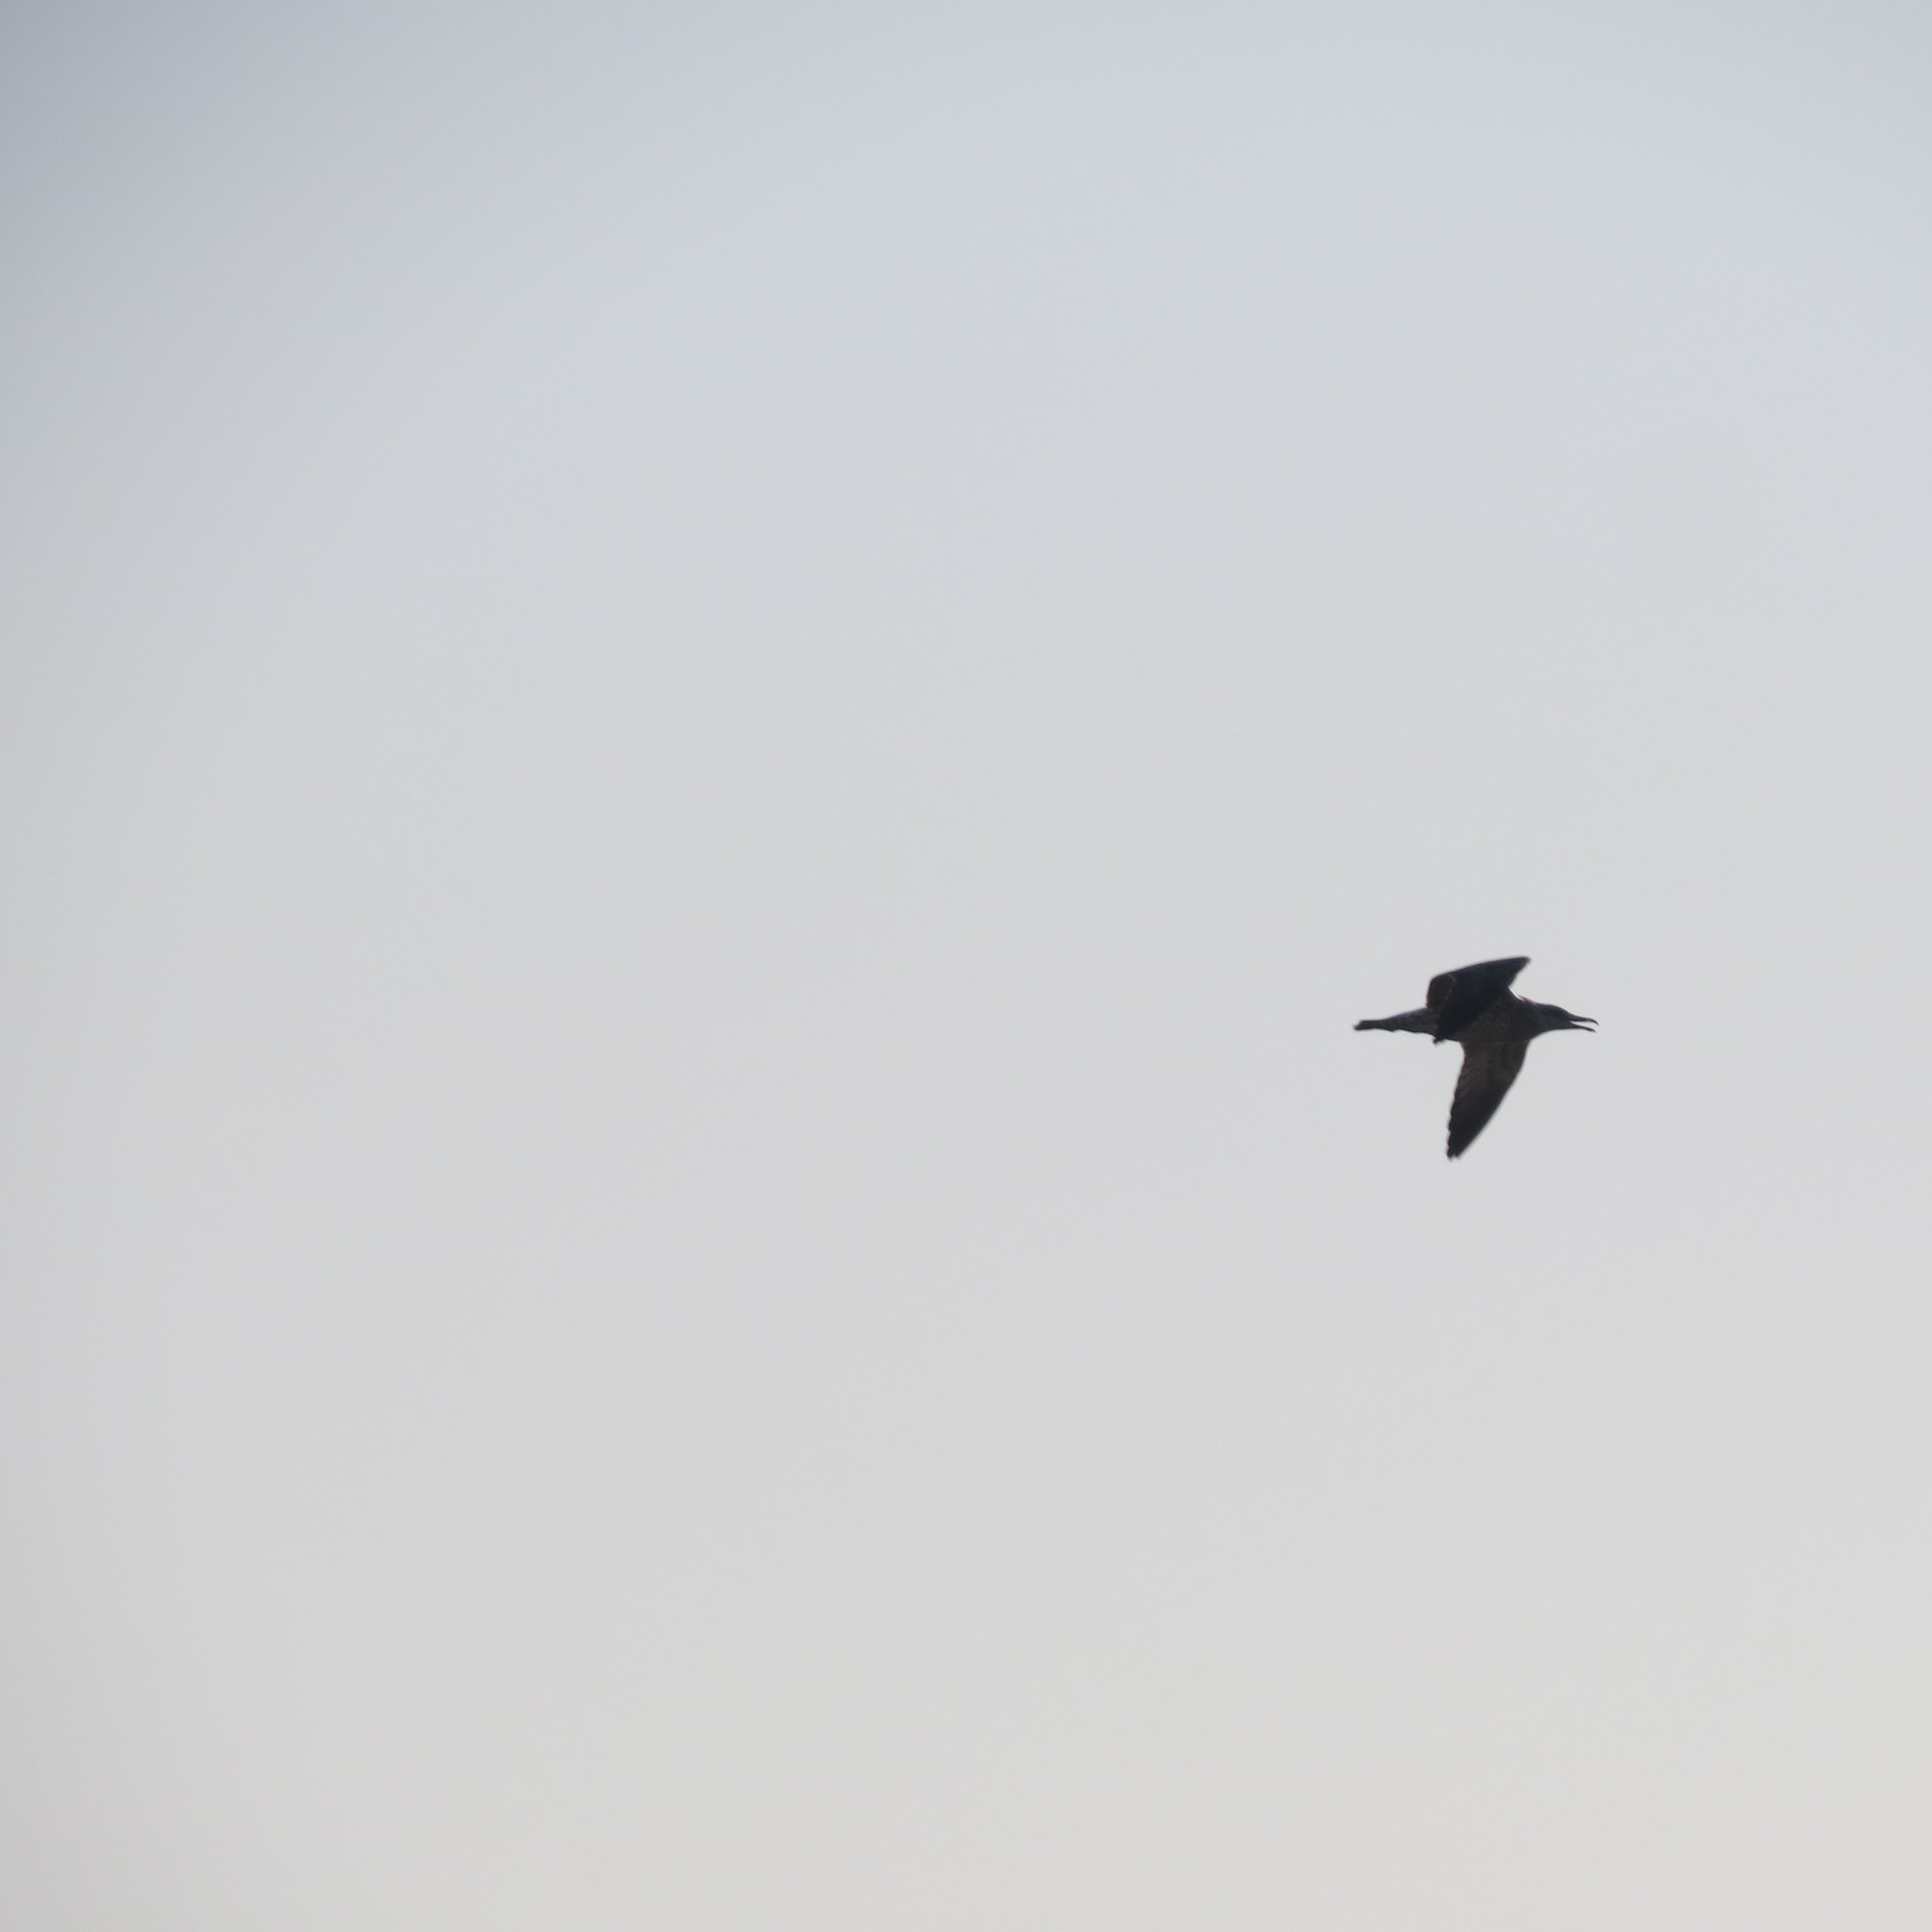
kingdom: Animalia
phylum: Chordata
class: Aves
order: Charadriiformes
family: Laridae
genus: Larus
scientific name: Larus
